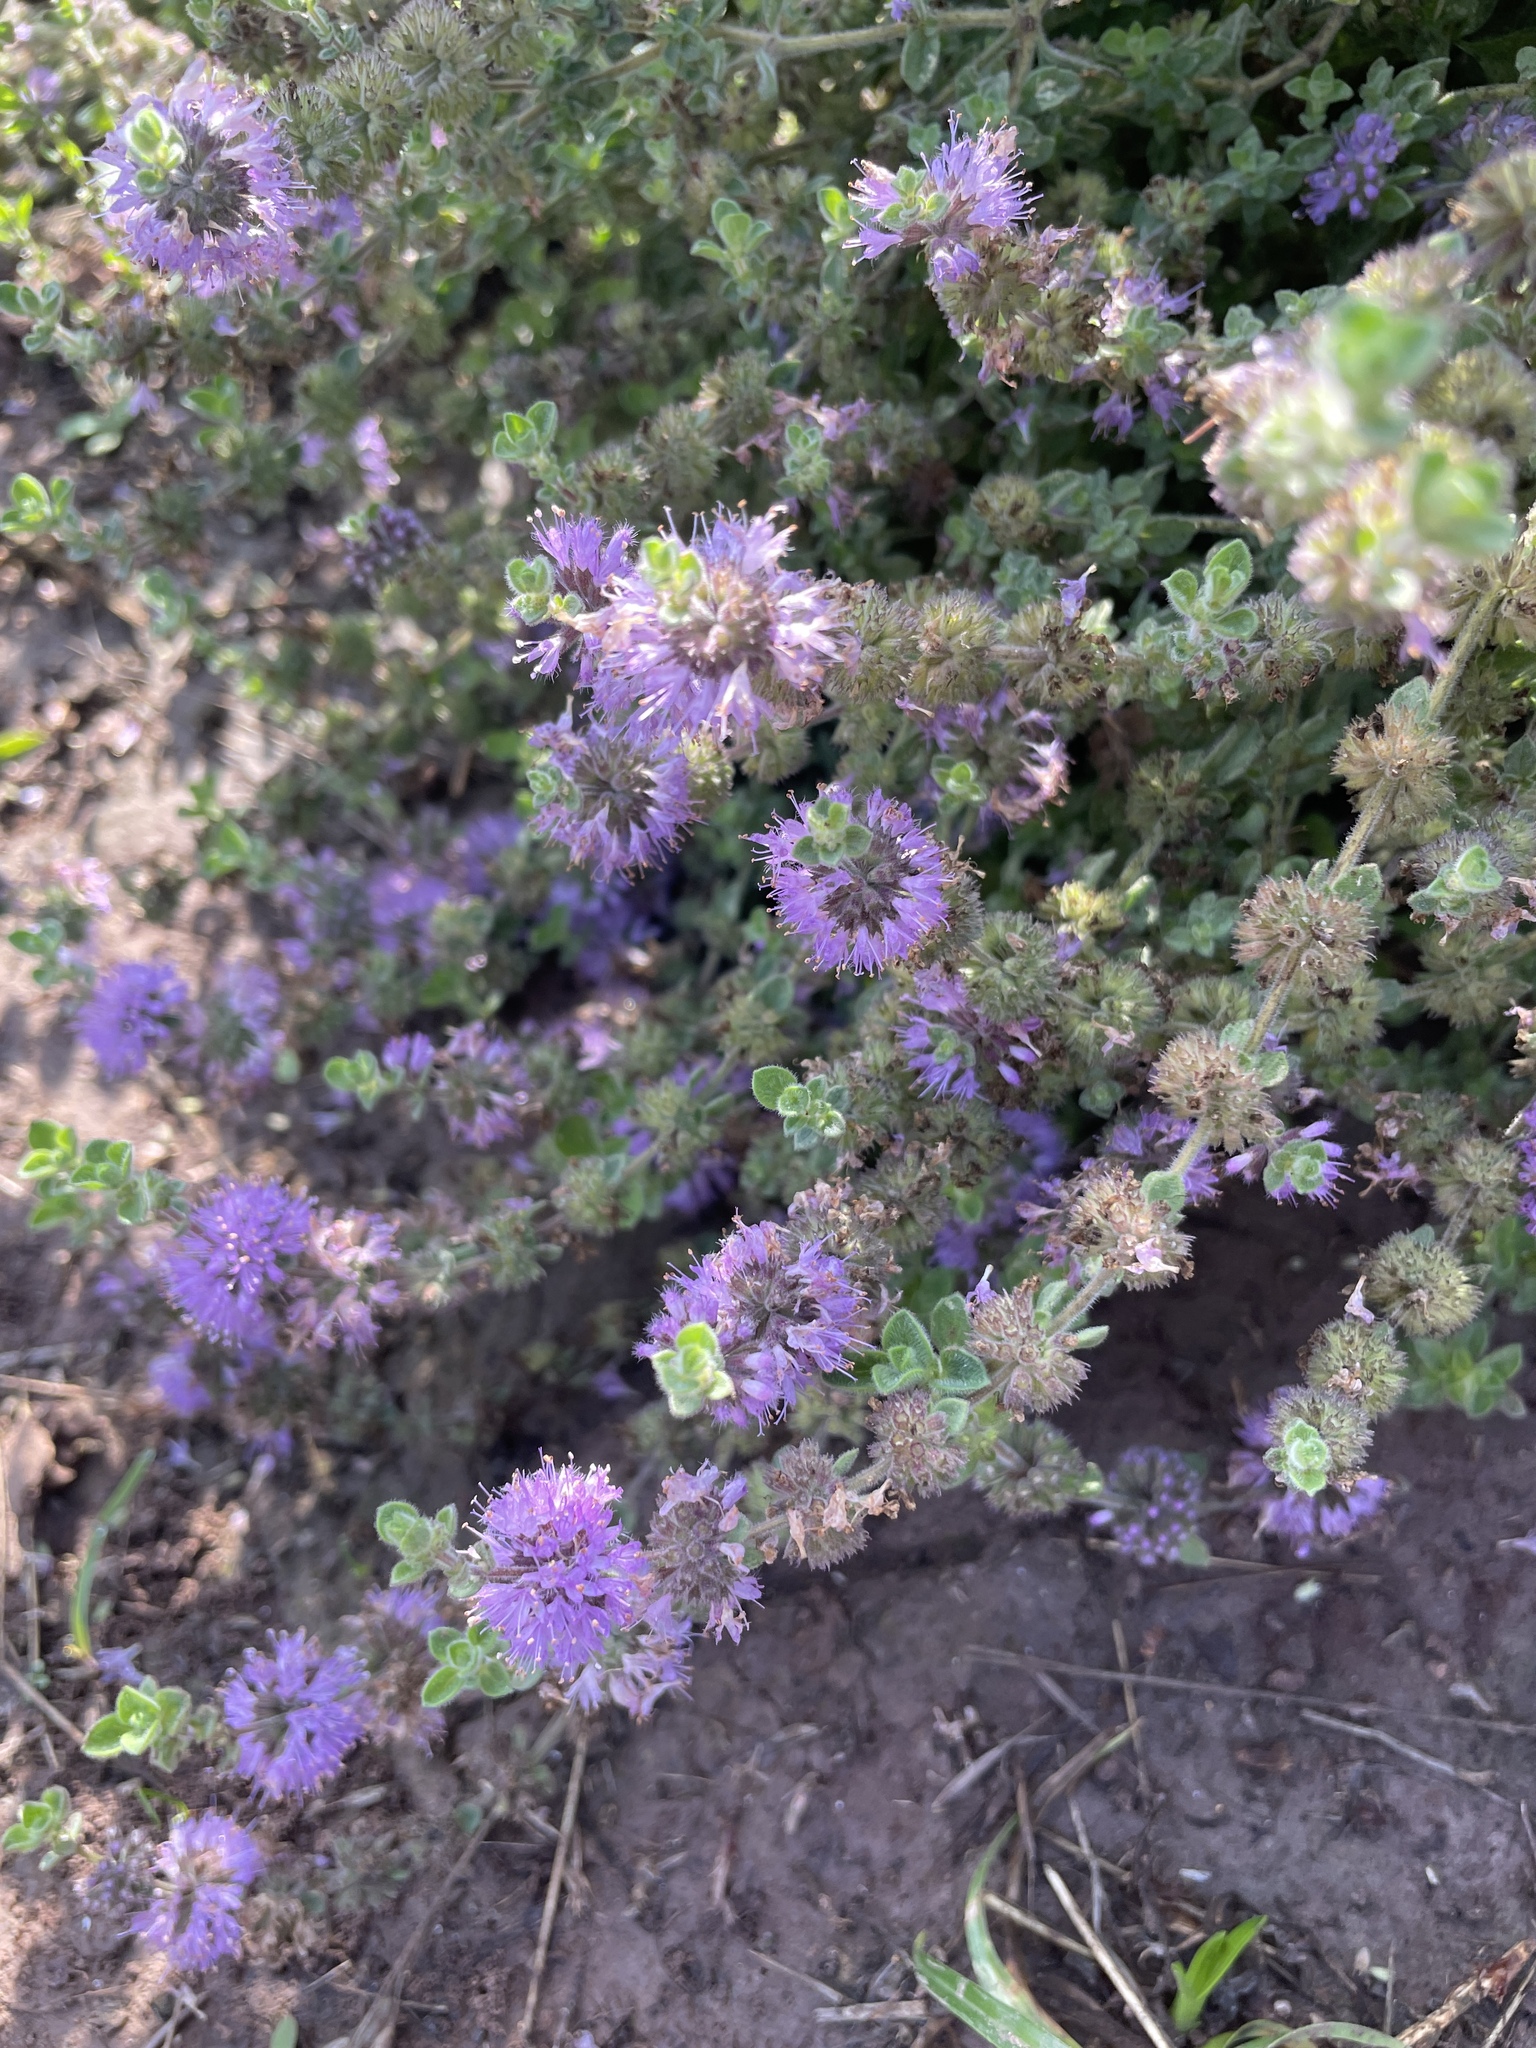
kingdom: Plantae
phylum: Tracheophyta
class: Magnoliopsida
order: Lamiales
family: Lamiaceae
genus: Mentha
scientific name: Mentha pulegium
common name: Pennyroyal
